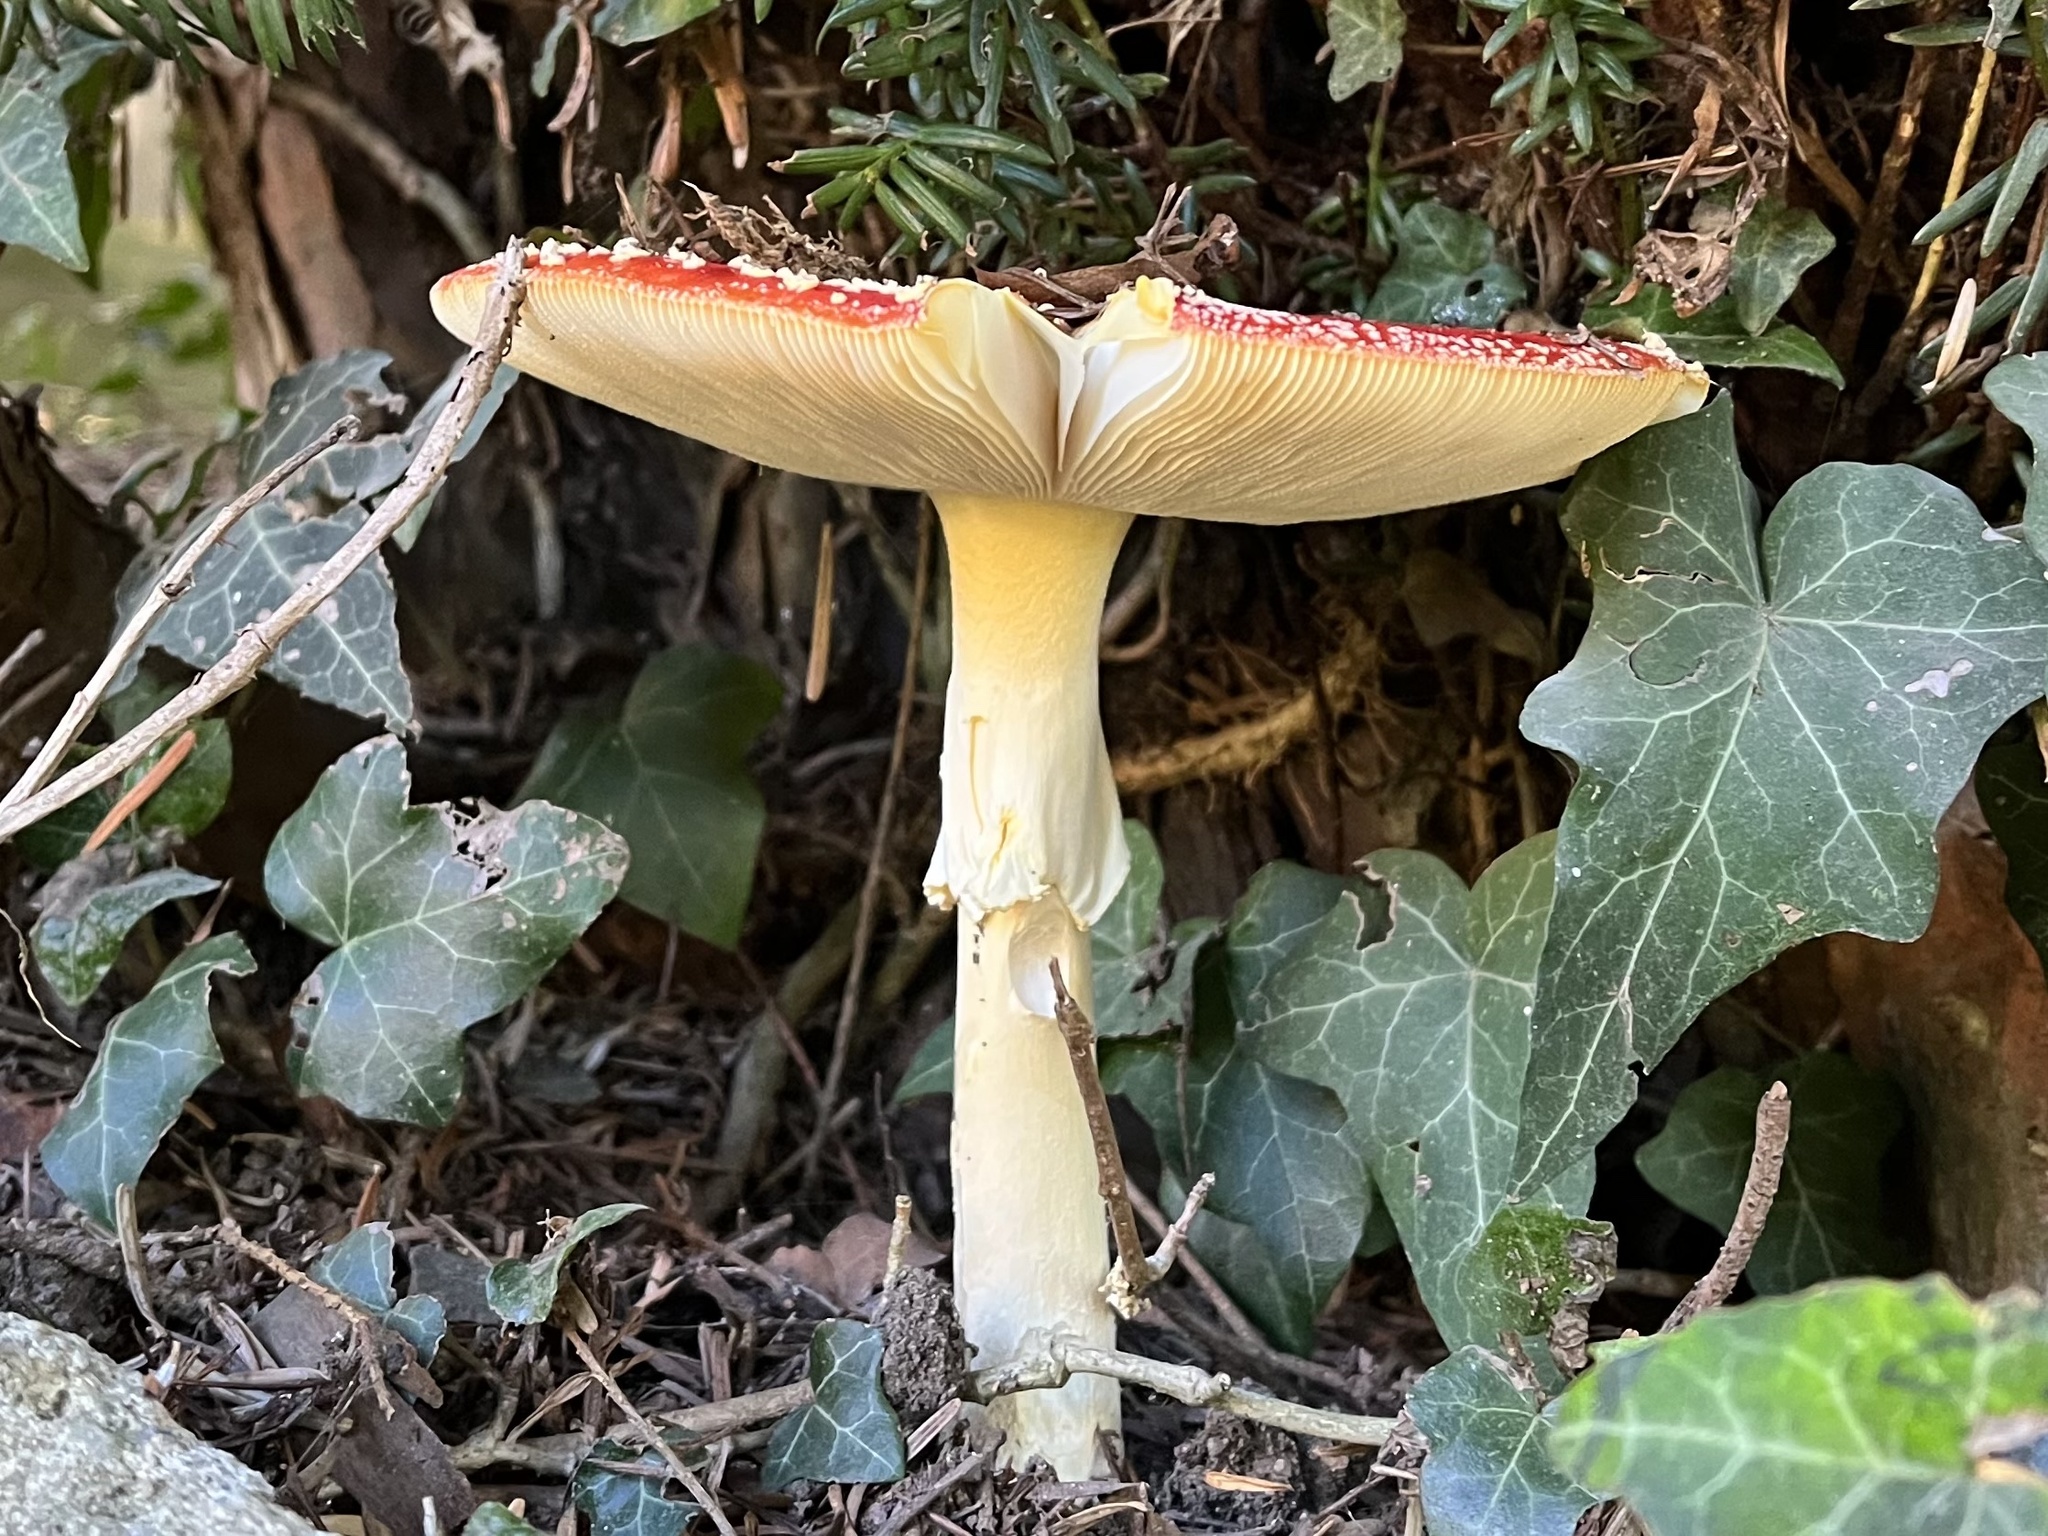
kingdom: Fungi
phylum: Basidiomycota
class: Agaricomycetes
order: Agaricales
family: Amanitaceae
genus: Amanita
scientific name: Amanita muscaria
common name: Fly agaric
